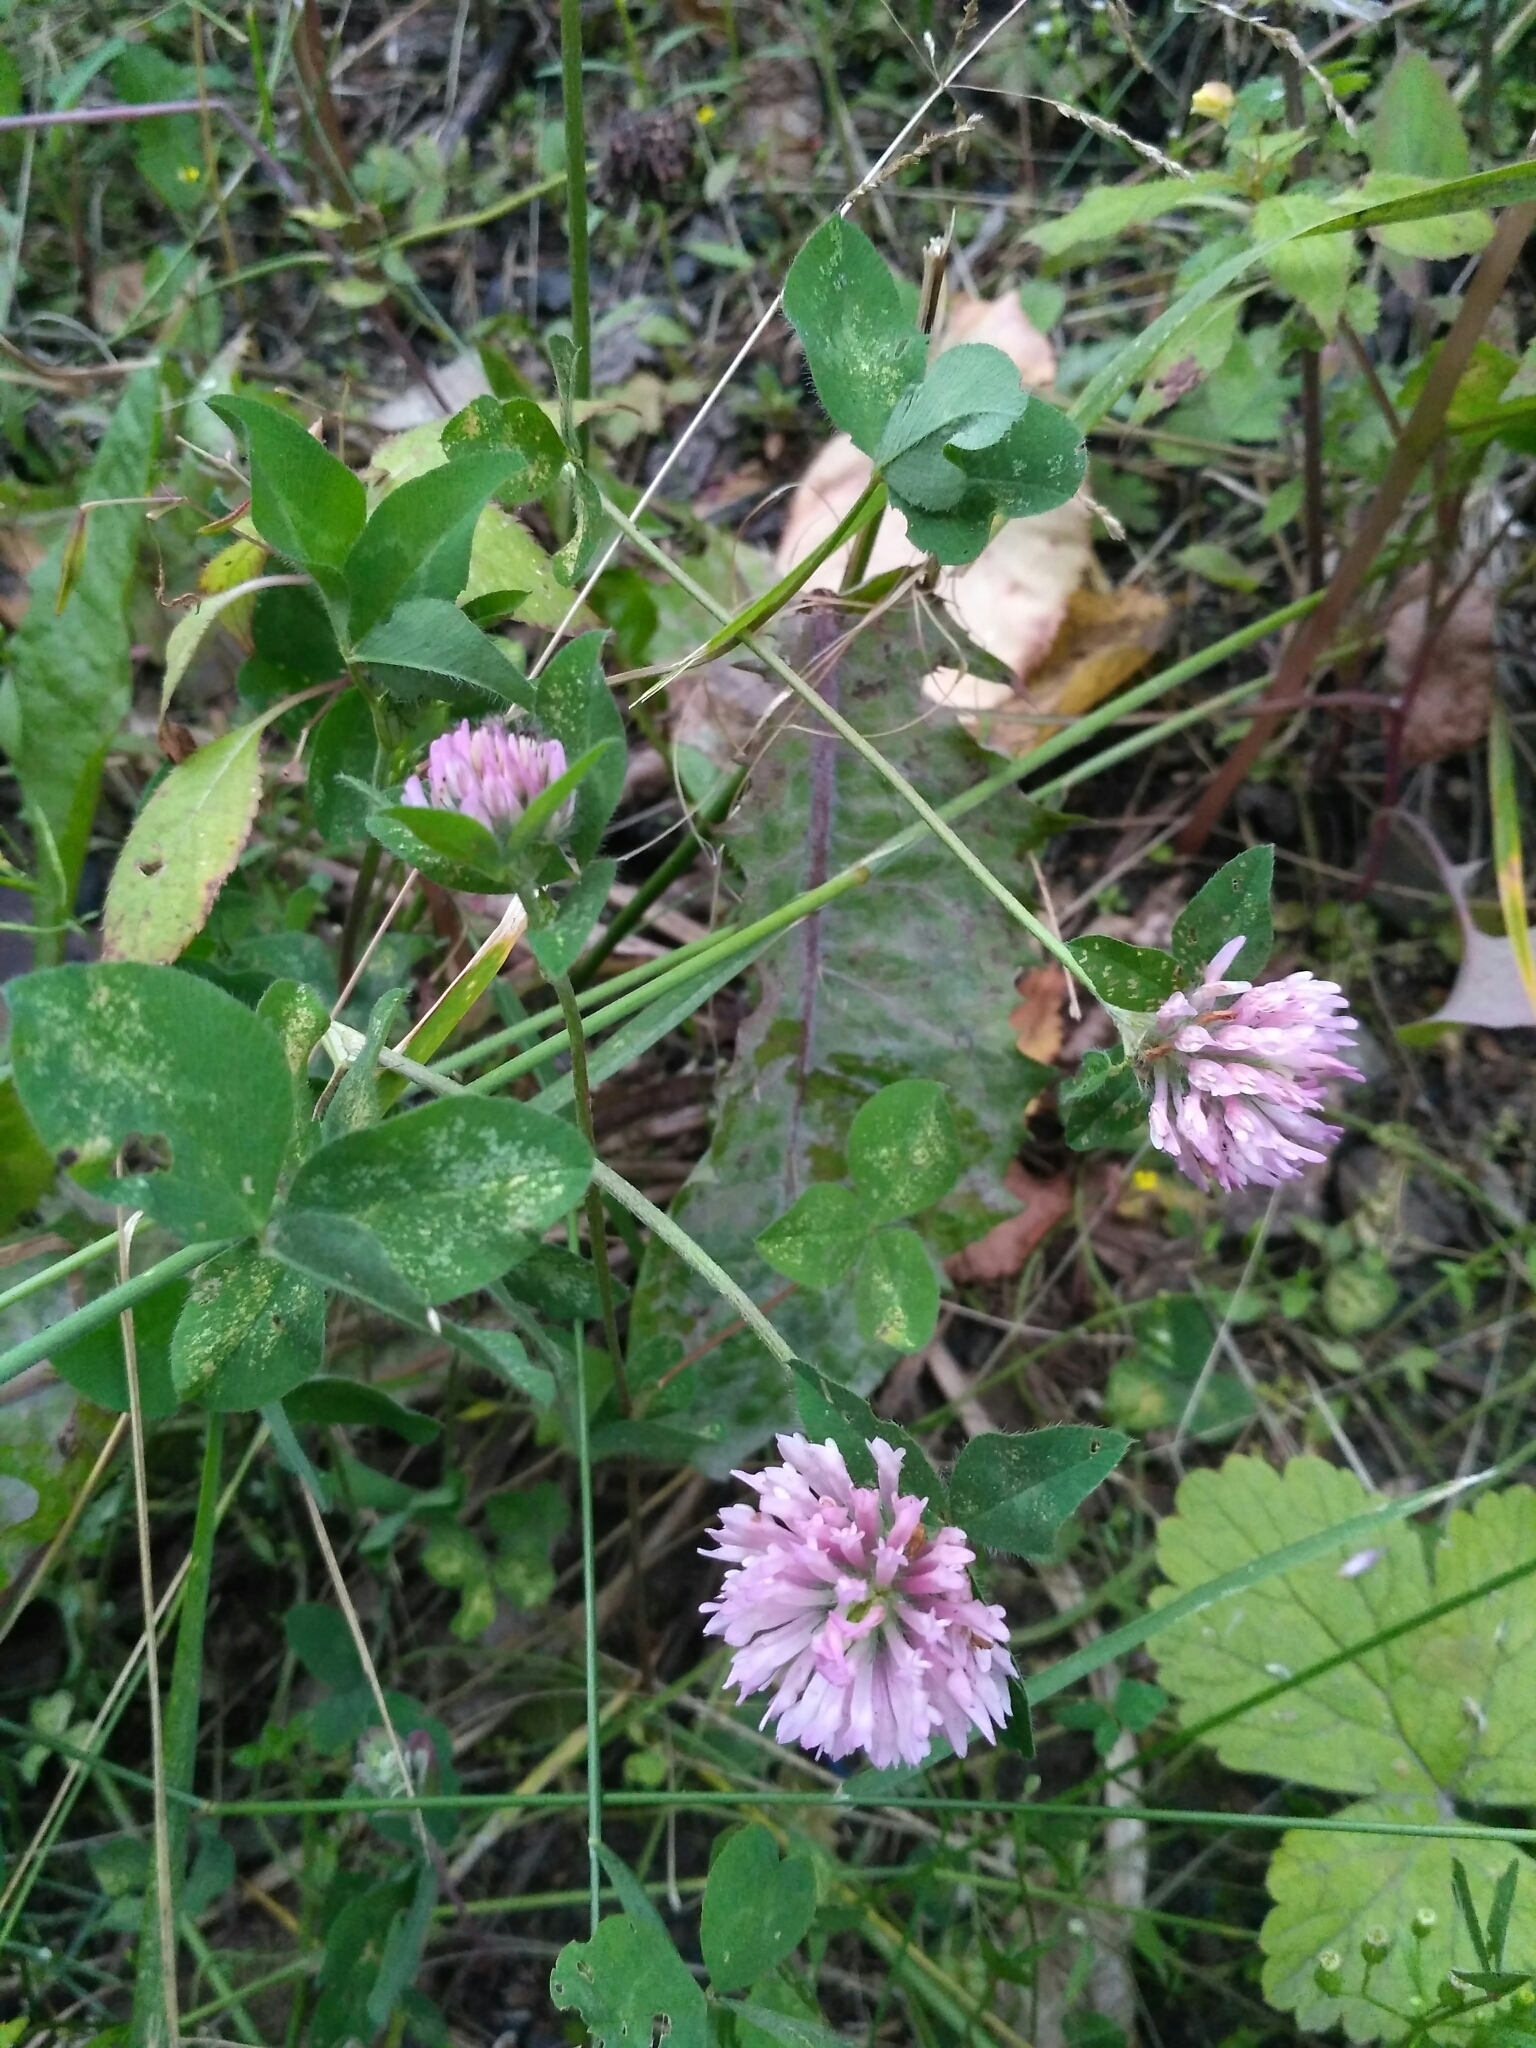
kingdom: Plantae
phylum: Tracheophyta
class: Magnoliopsida
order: Fabales
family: Fabaceae
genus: Trifolium
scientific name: Trifolium pratense
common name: Red clover
